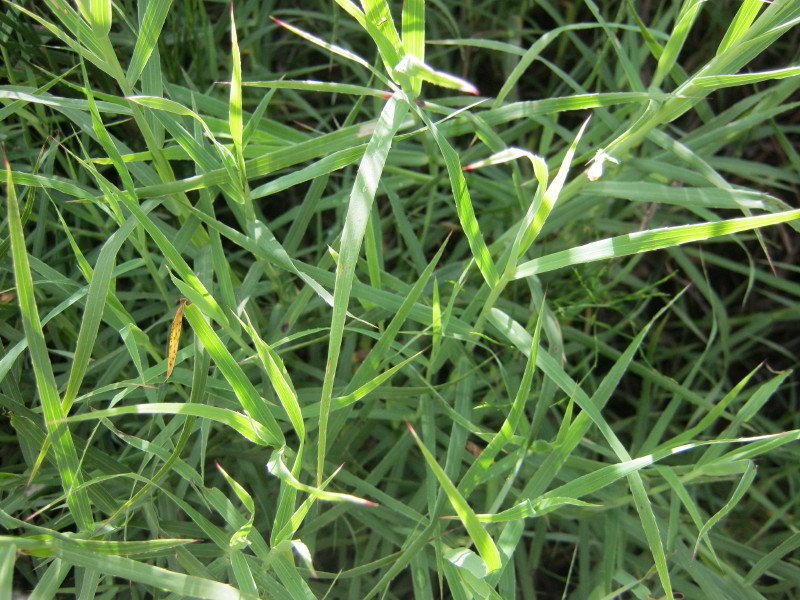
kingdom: Plantae
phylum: Tracheophyta
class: Magnoliopsida
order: Rosales
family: Rosaceae
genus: Cliffortia
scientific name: Cliffortia graminea
